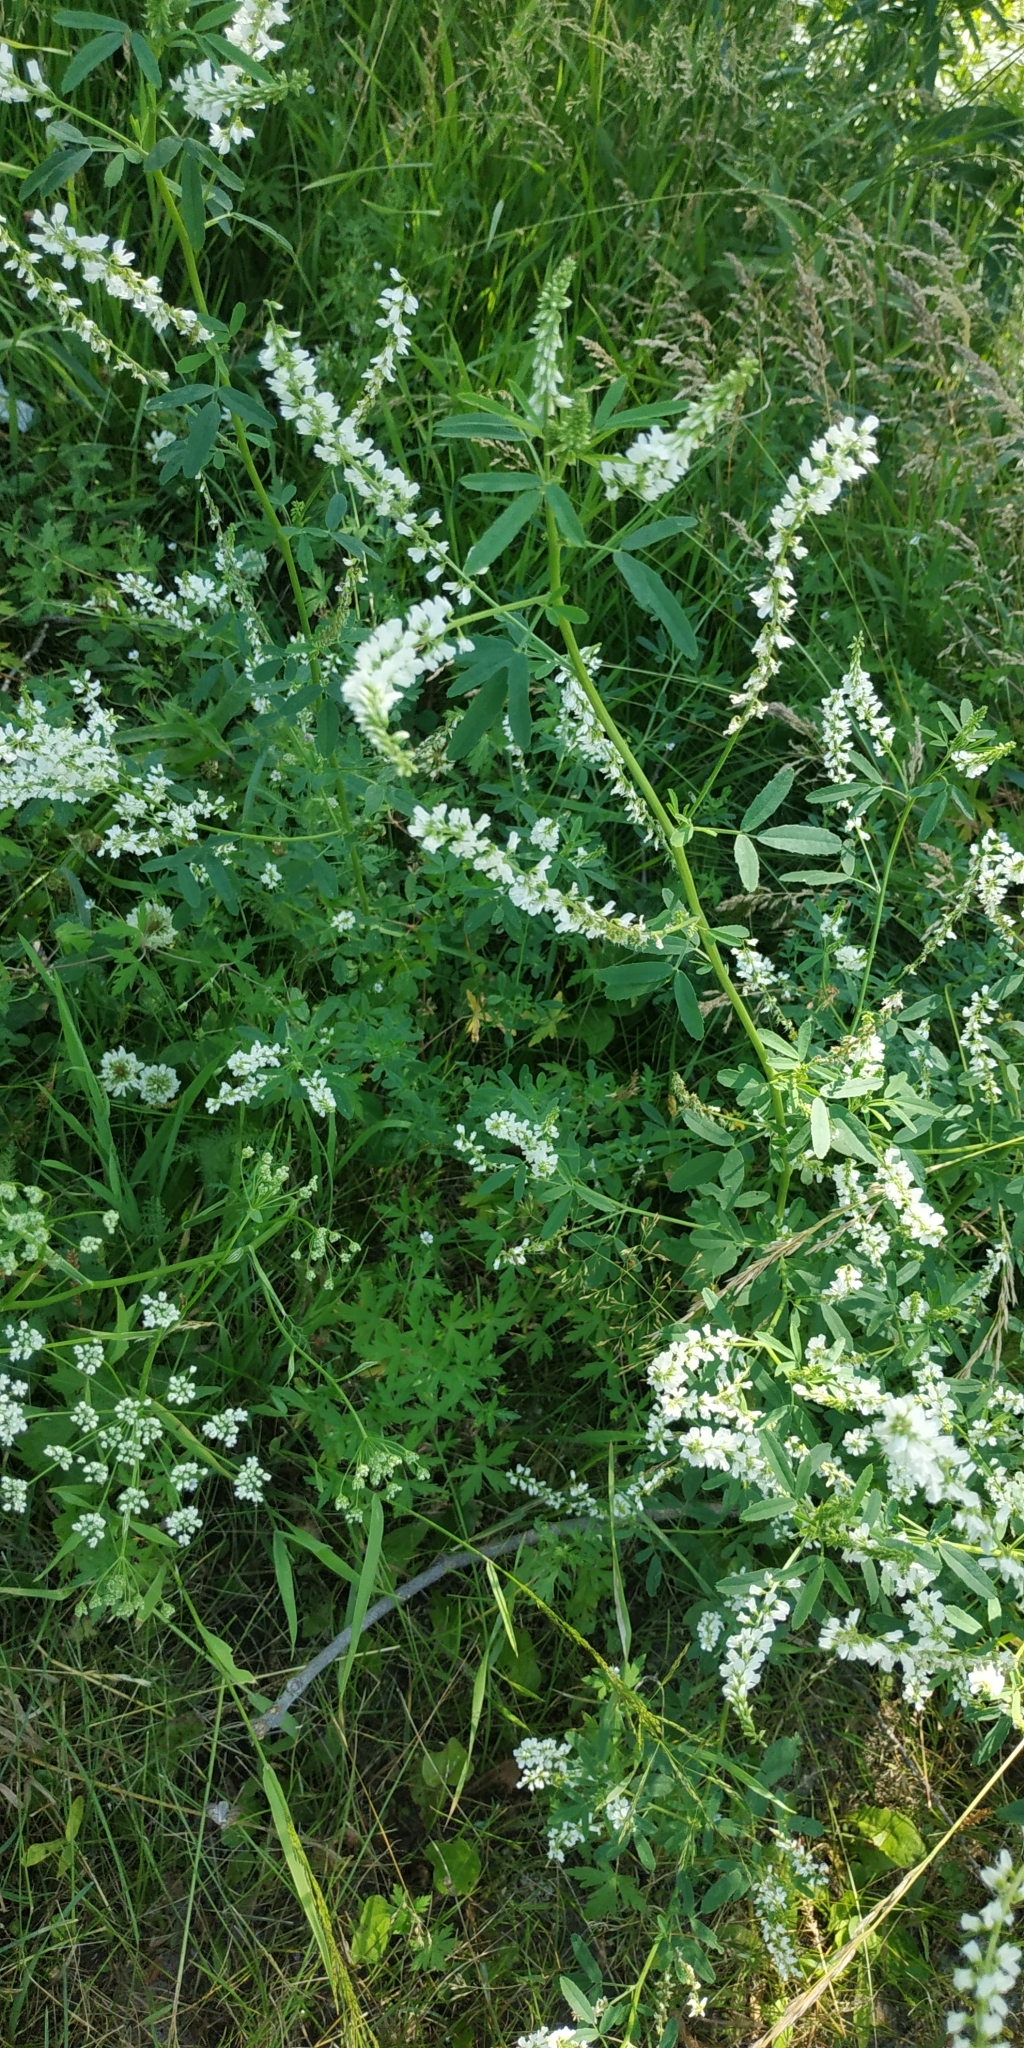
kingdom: Plantae
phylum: Tracheophyta
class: Magnoliopsida
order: Fabales
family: Fabaceae
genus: Melilotus
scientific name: Melilotus albus
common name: White melilot
